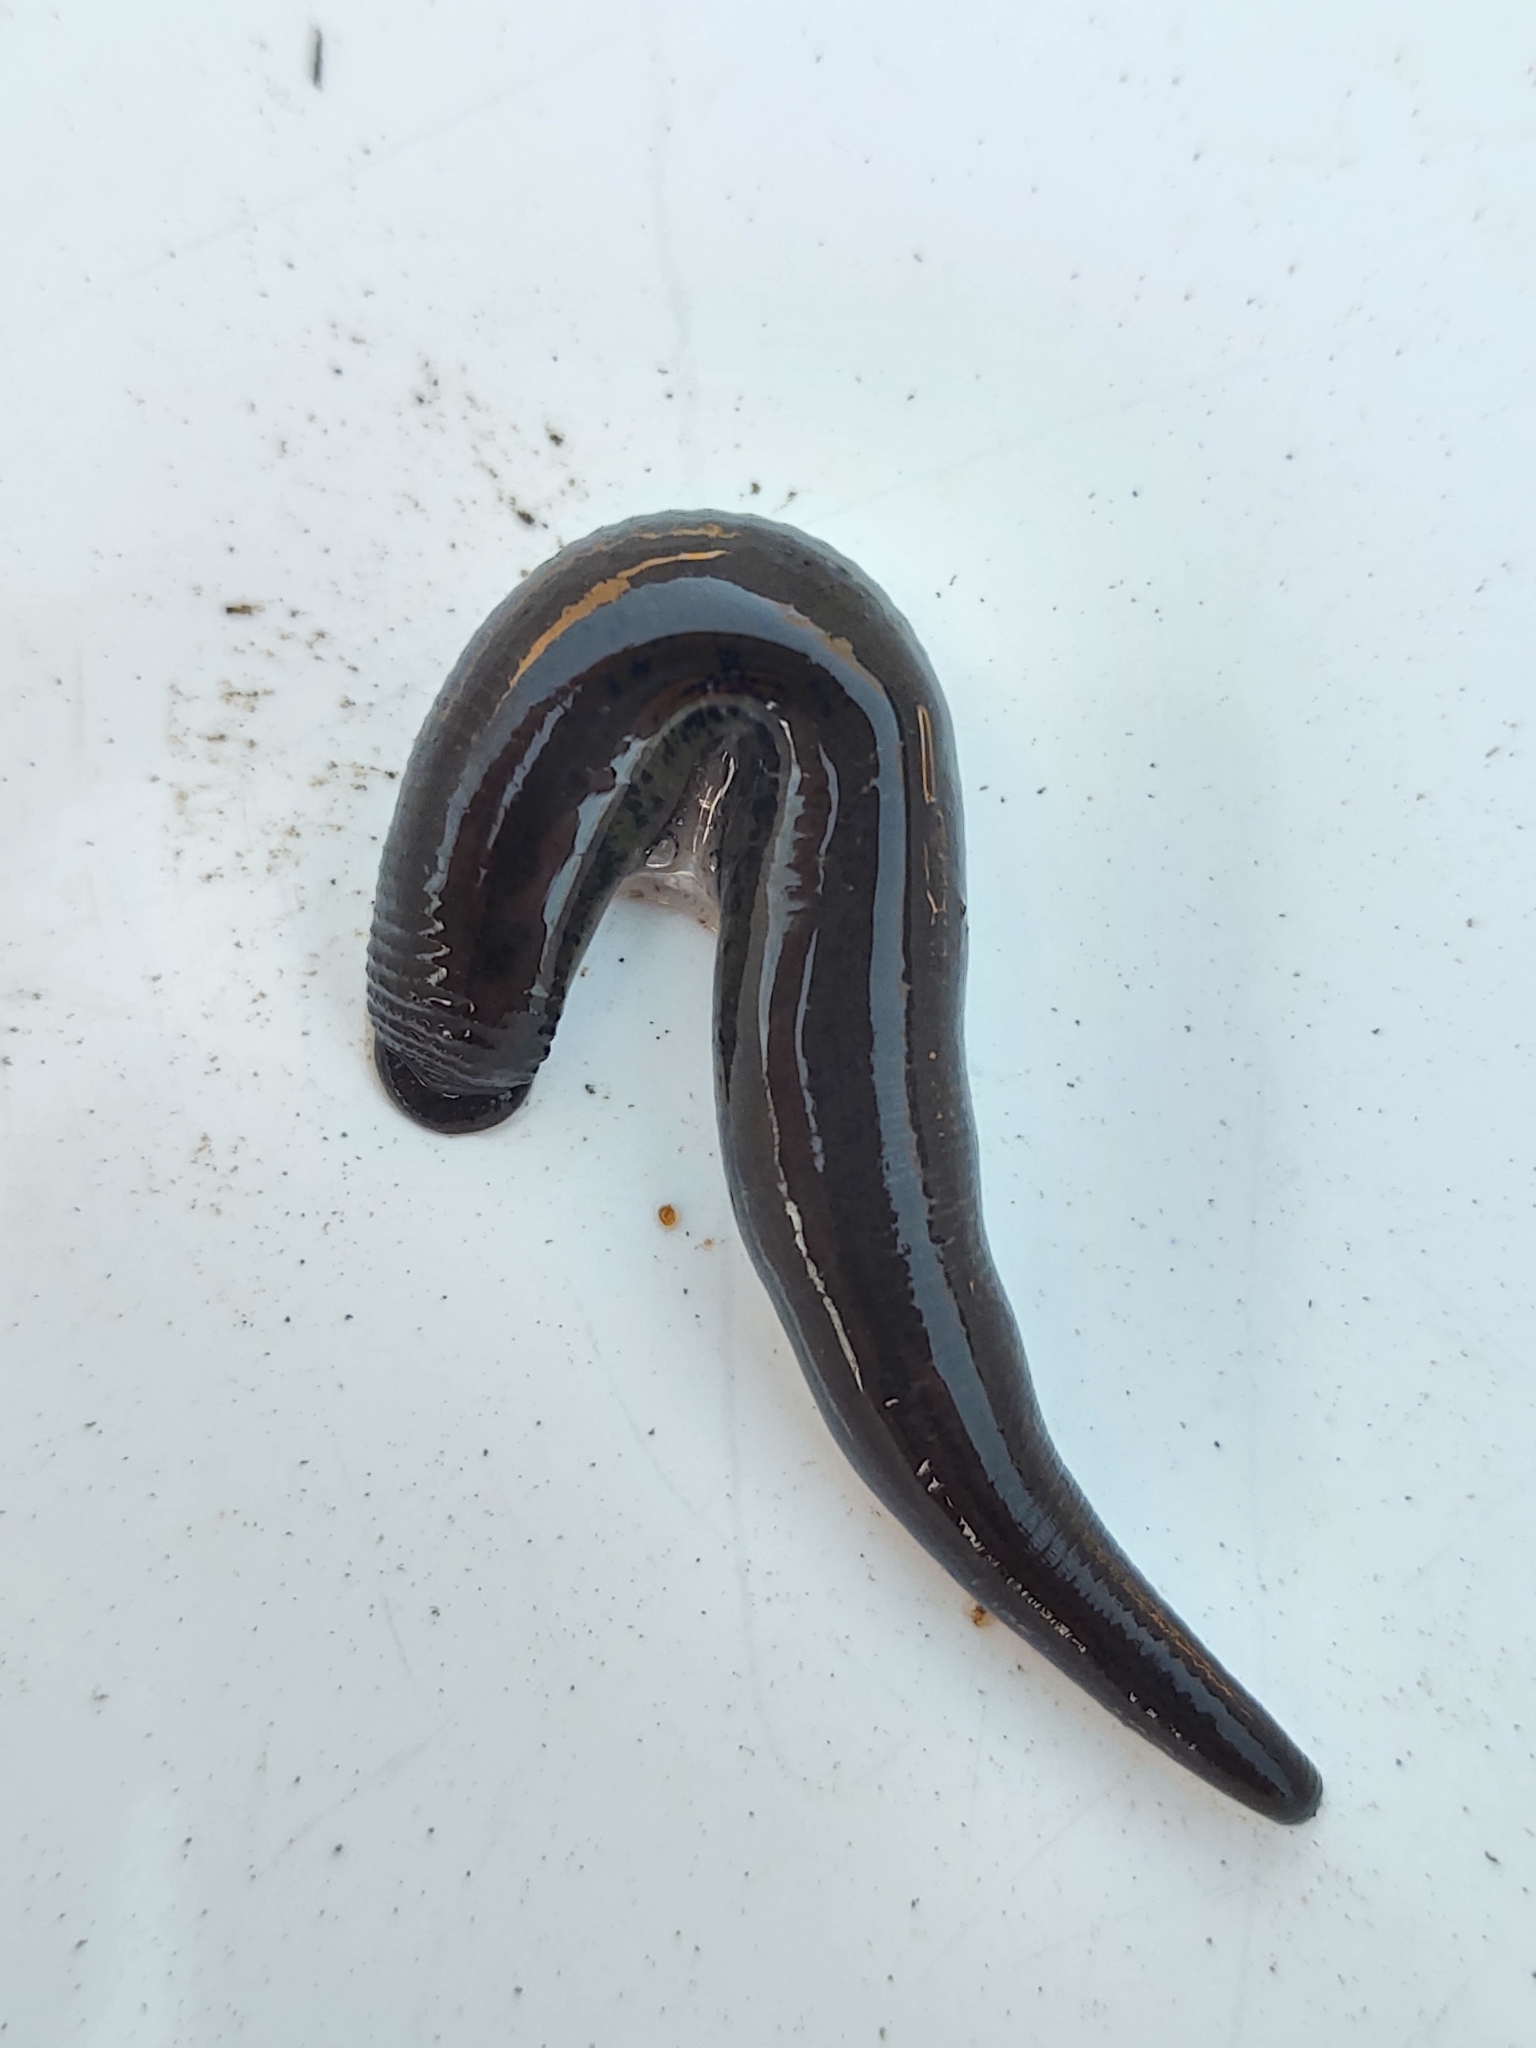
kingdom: Animalia
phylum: Annelida
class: Clitellata
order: Arhynchobdellida
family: Haemopidae
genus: Haemopis
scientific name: Haemopis sanguisuga
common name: Horse leech
